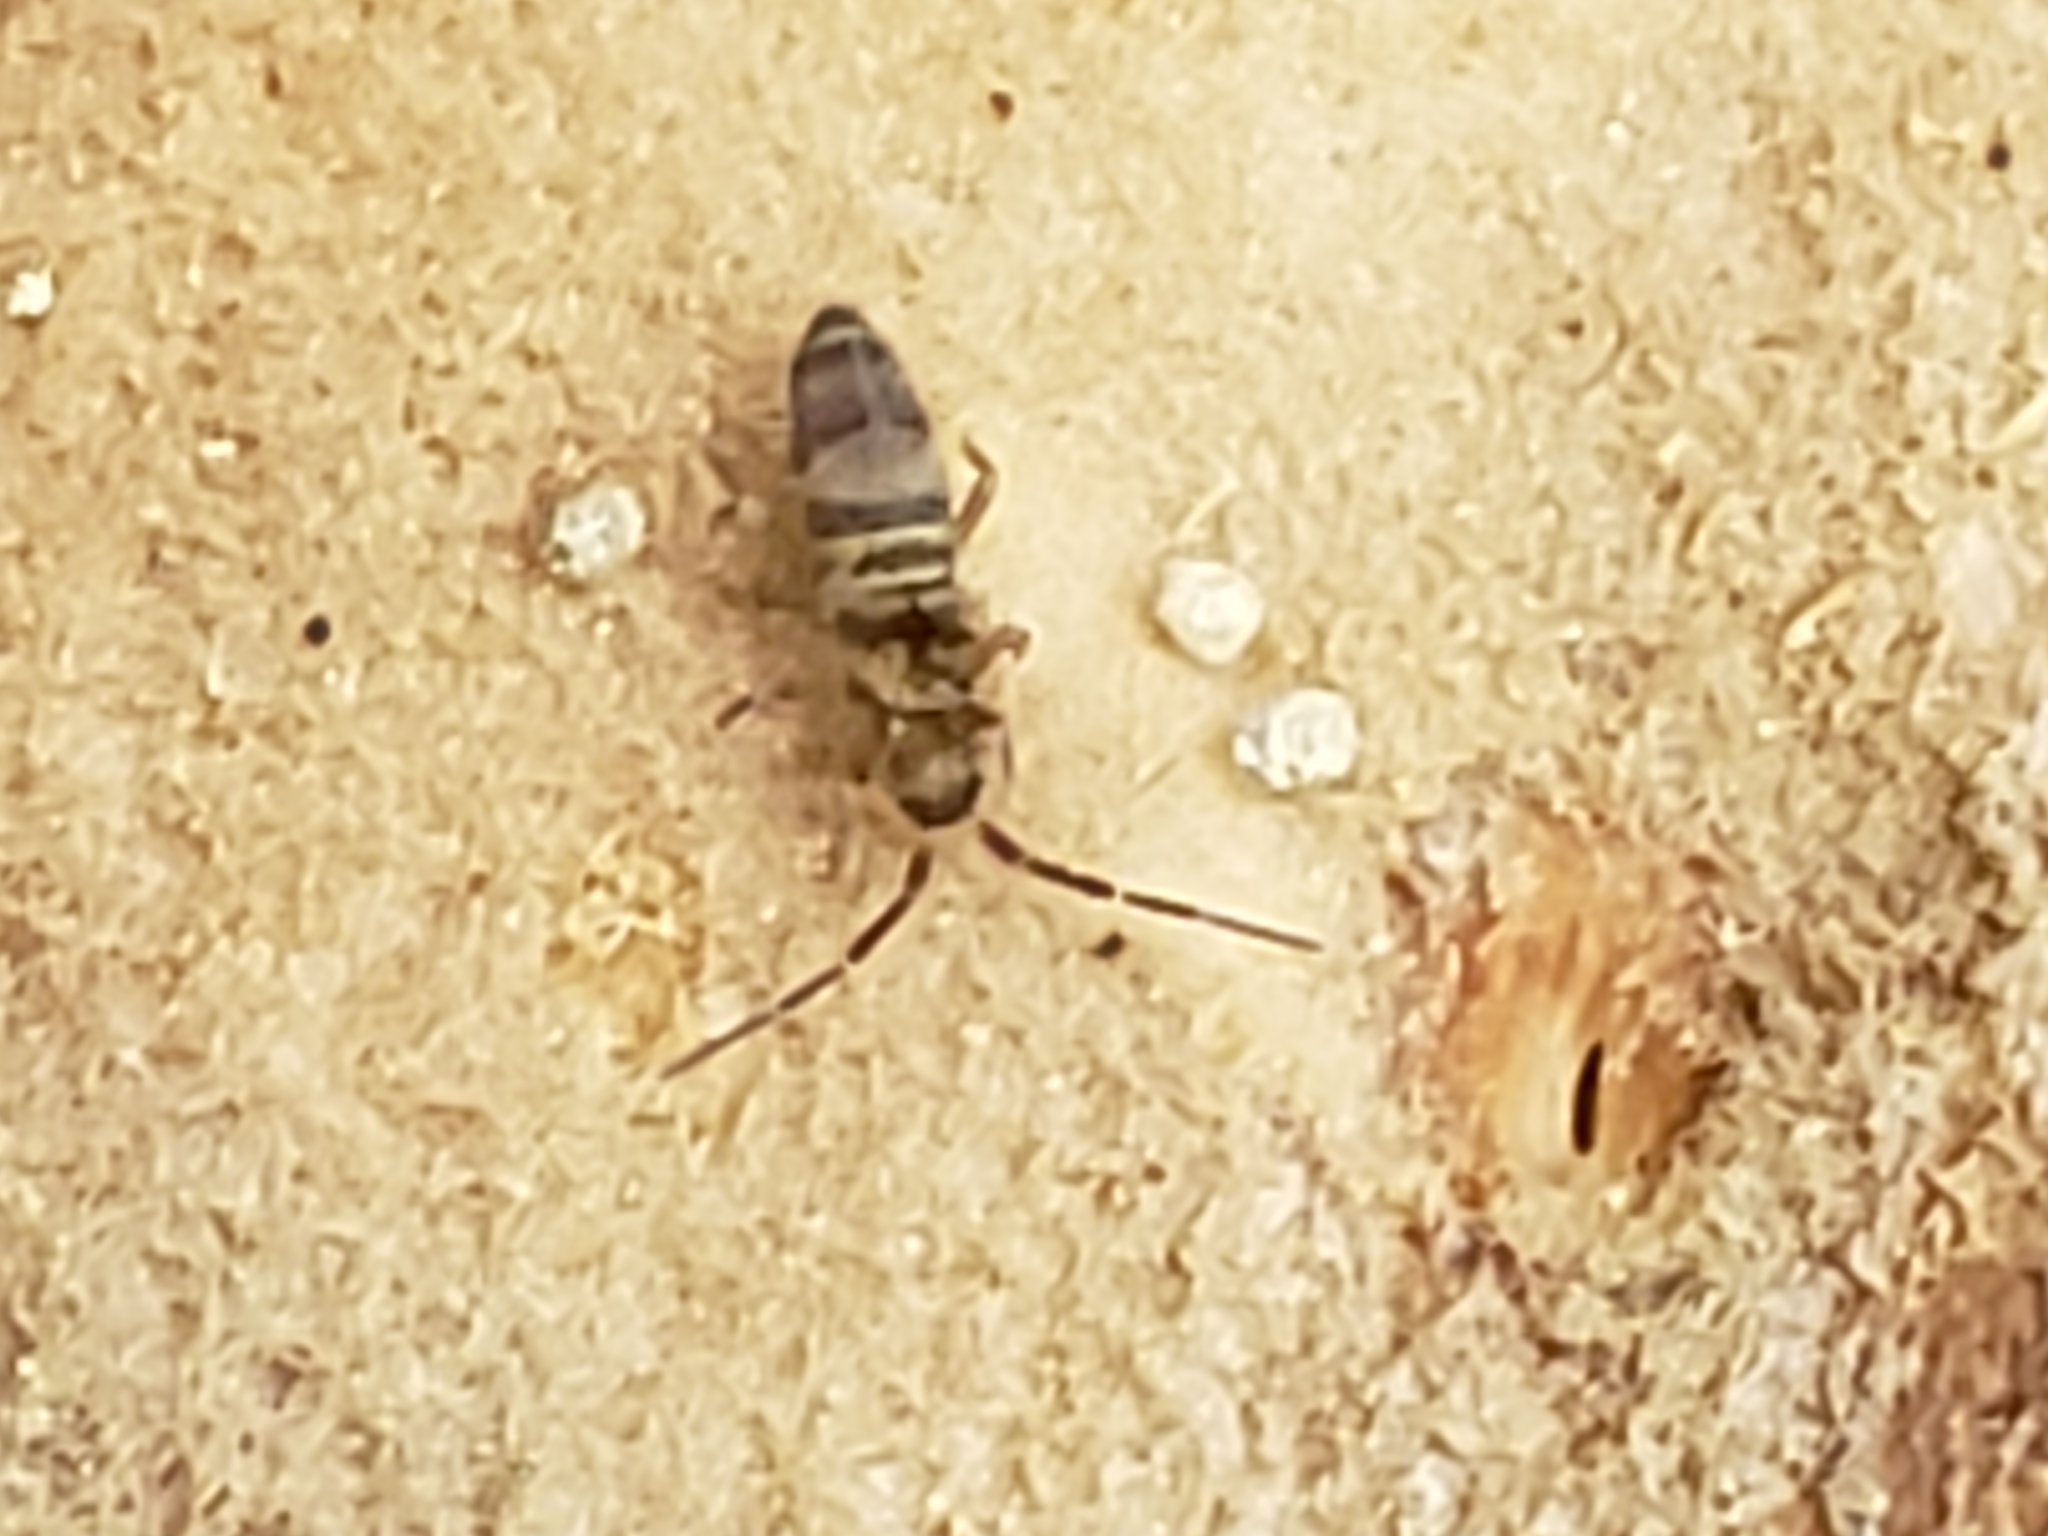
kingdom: Animalia
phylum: Arthropoda
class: Collembola
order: Entomobryomorpha
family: Orchesellidae
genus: Orchesella
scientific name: Orchesella hexfasciata
